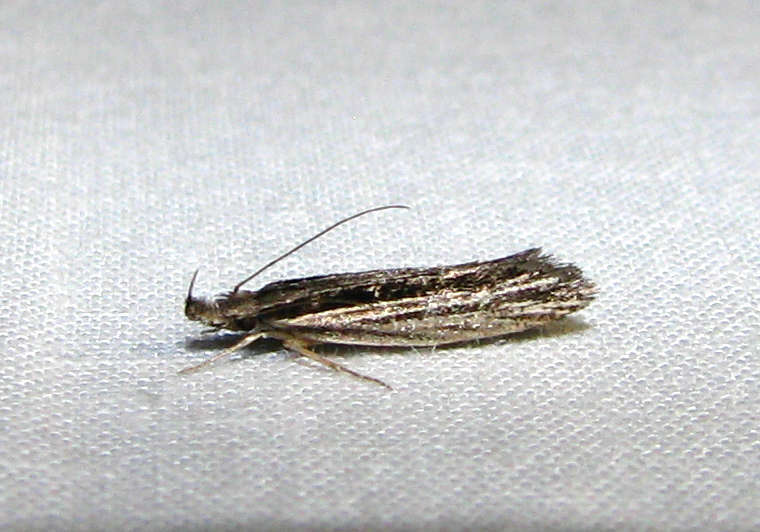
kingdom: Animalia
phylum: Arthropoda
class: Insecta
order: Lepidoptera
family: Depressariidae
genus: Cryptolechia
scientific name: Cryptolechia Leptosaces schistopa
